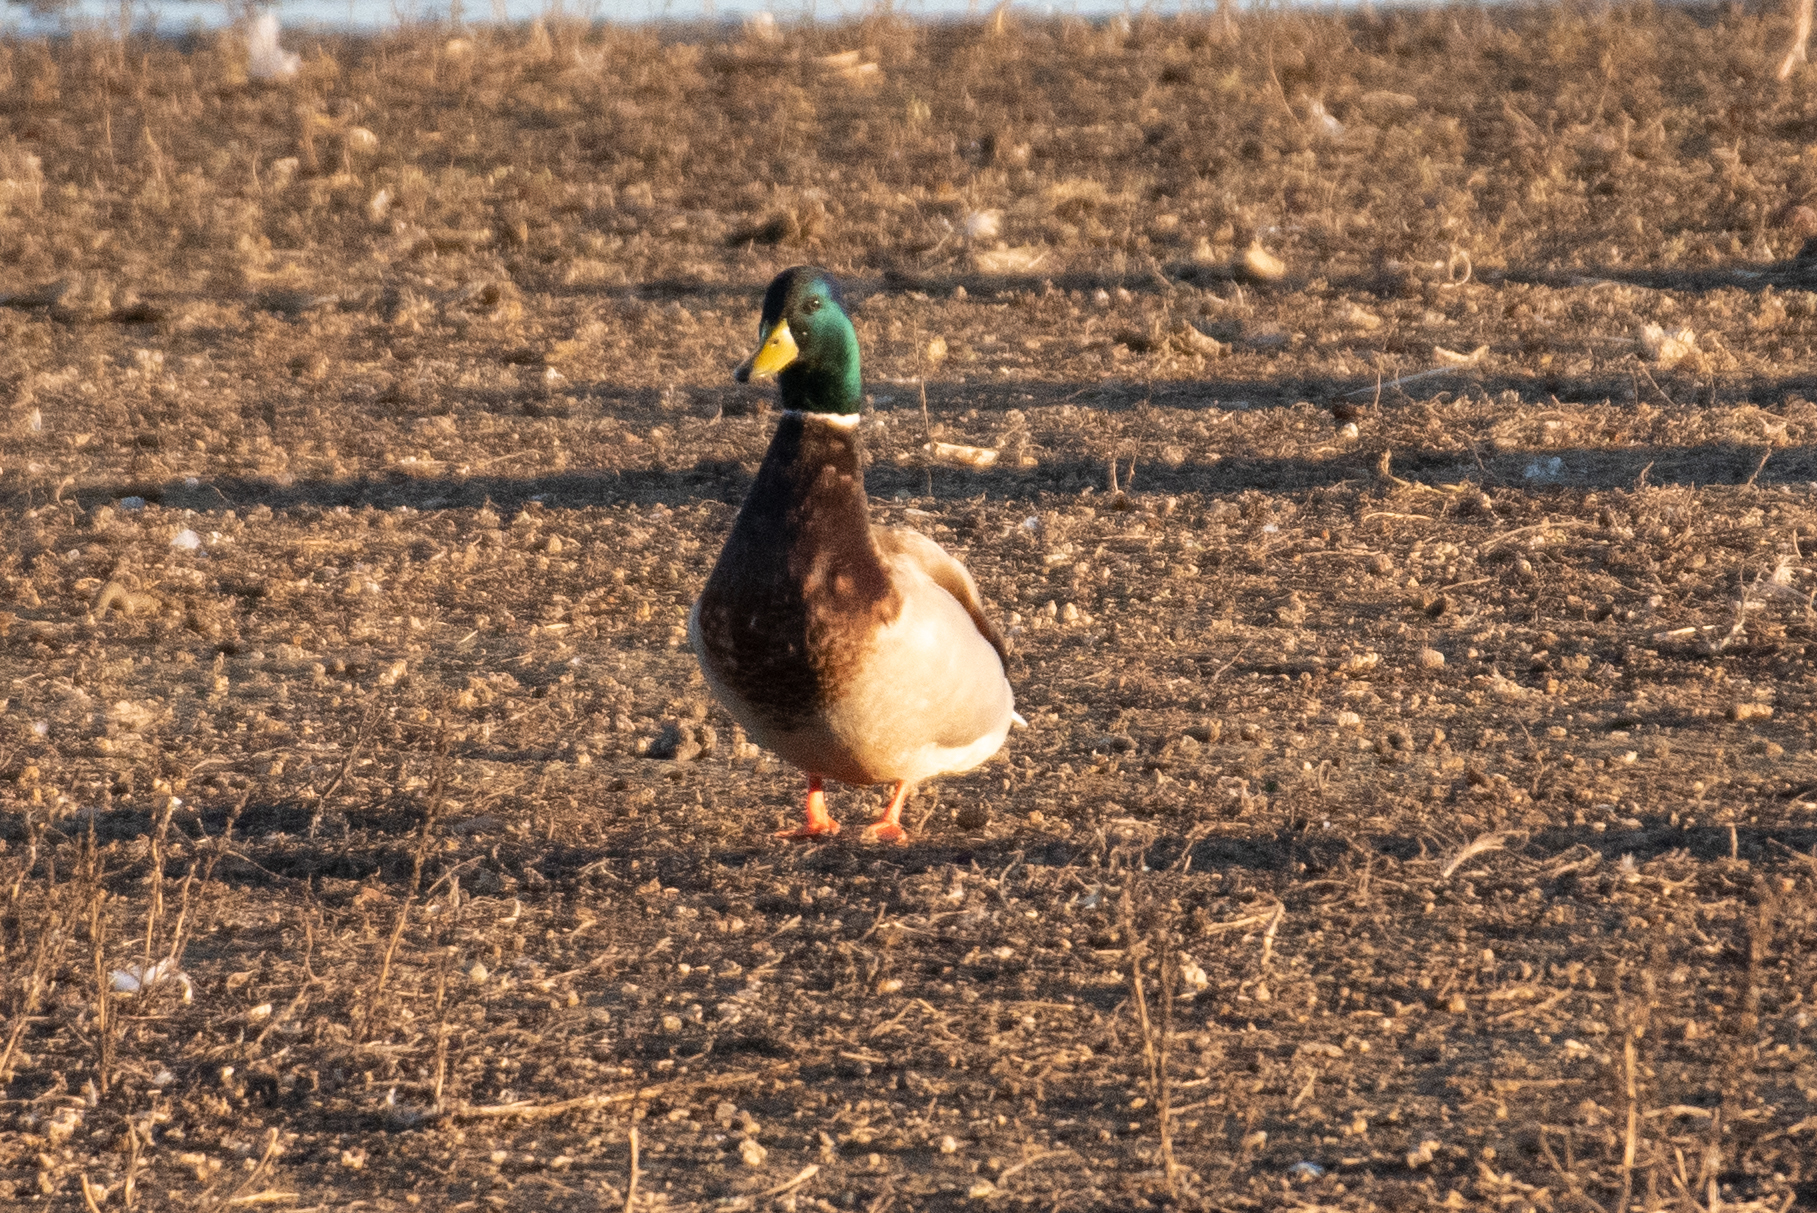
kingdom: Animalia
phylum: Chordata
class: Aves
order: Anseriformes
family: Anatidae
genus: Anas
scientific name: Anas platyrhynchos
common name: Mallard
